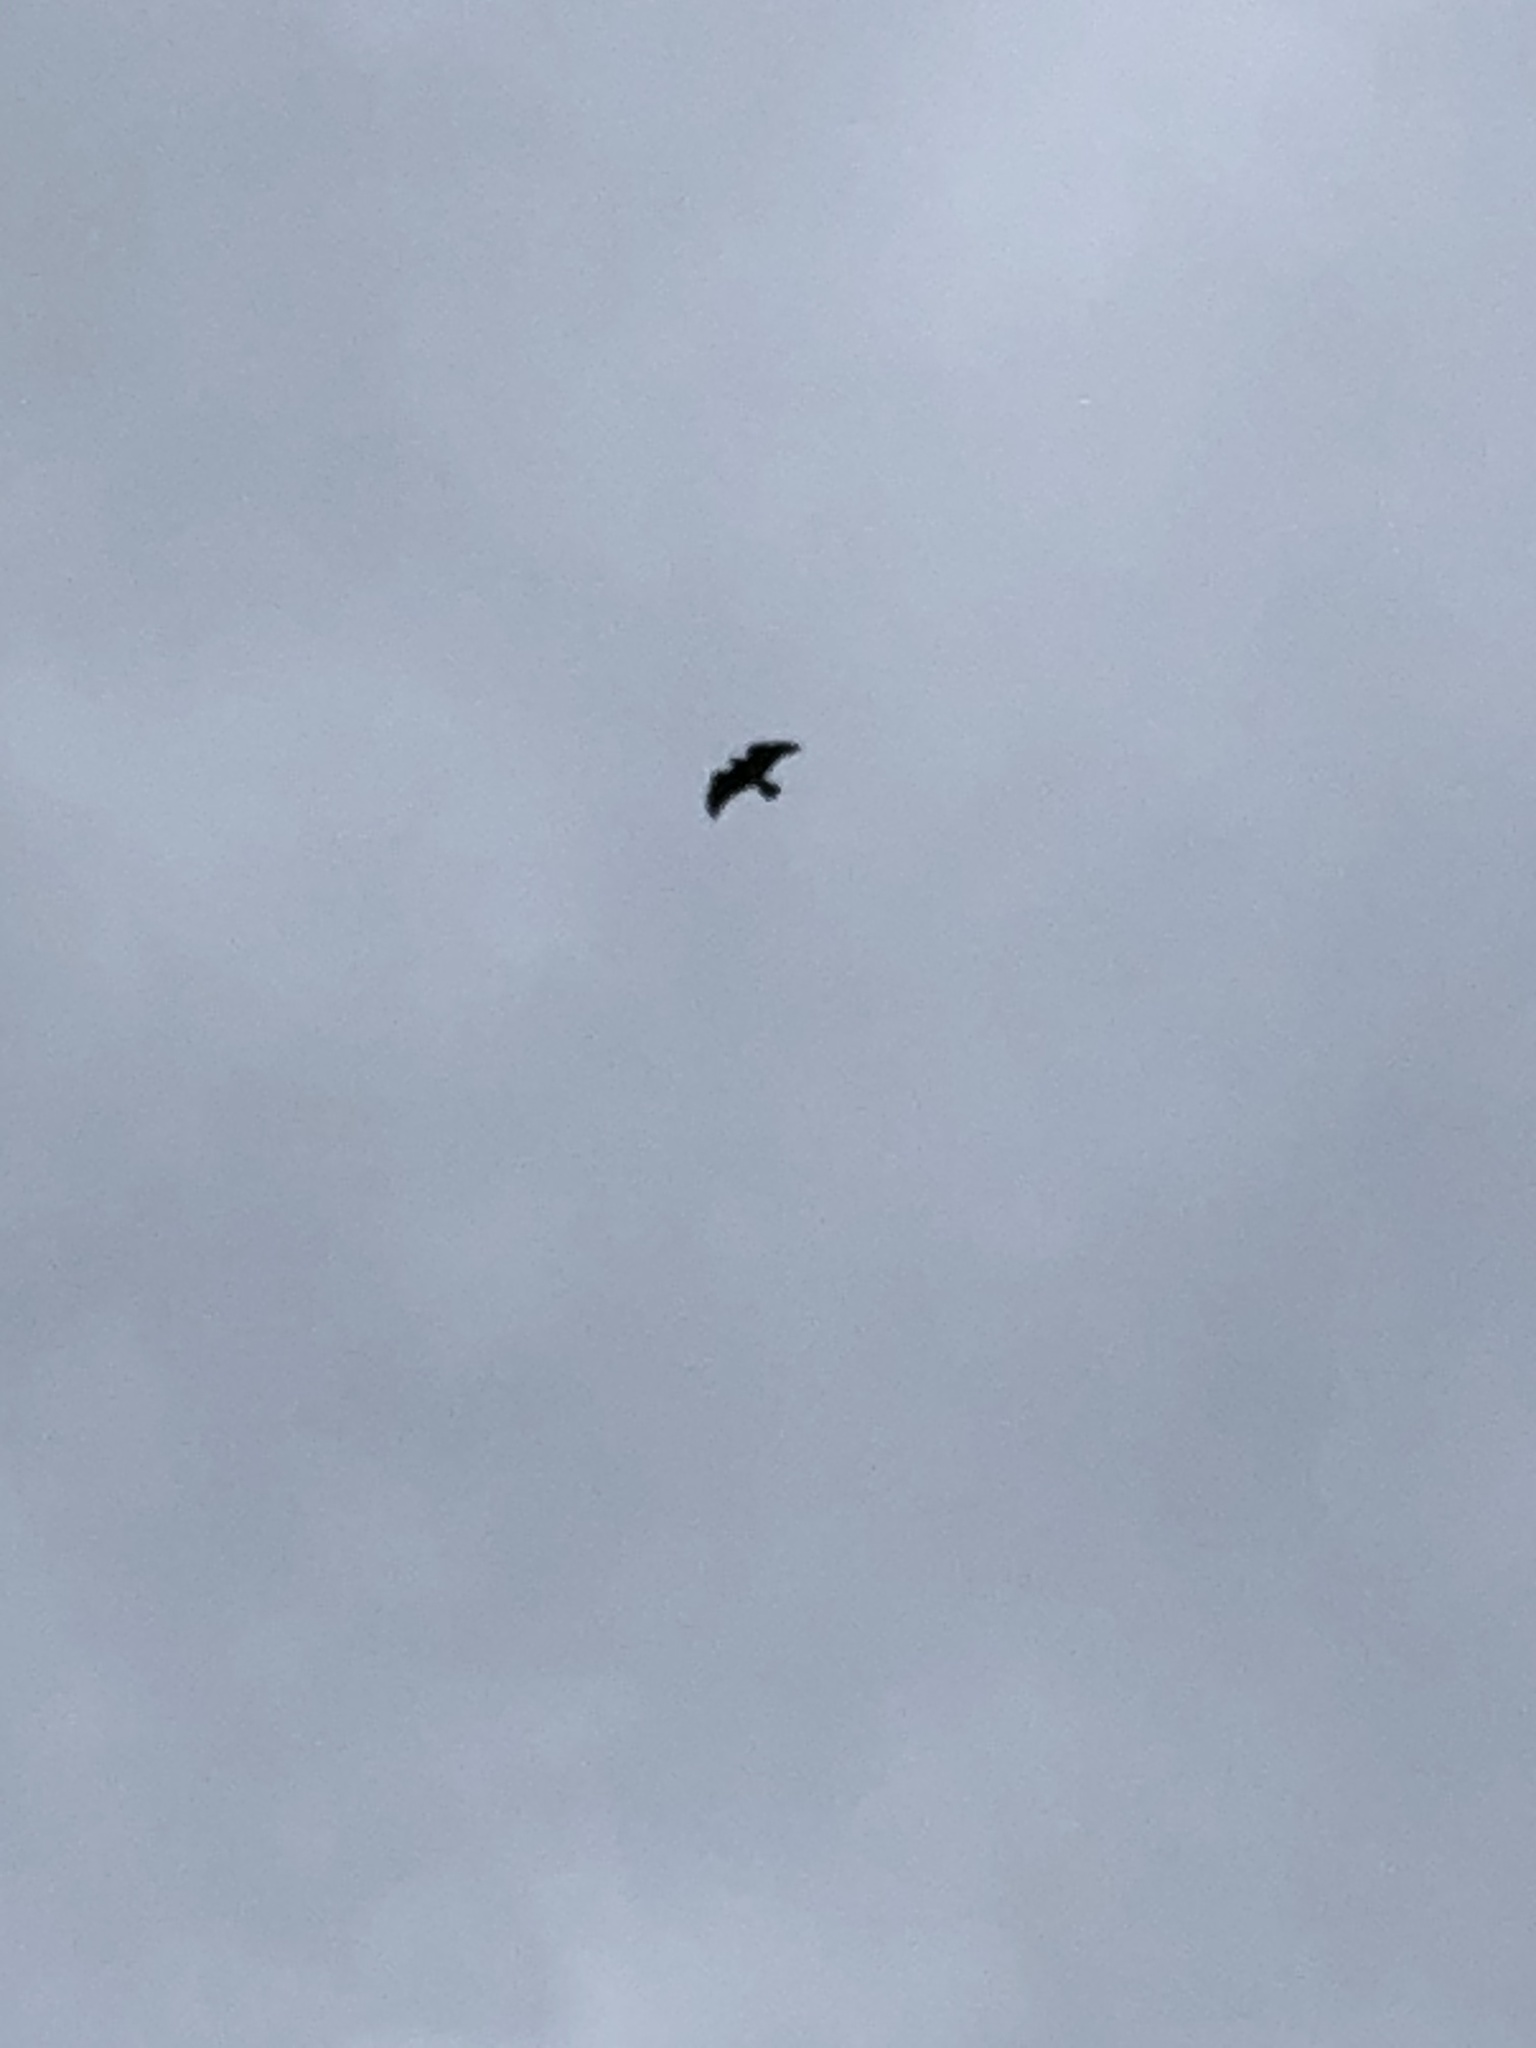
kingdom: Animalia
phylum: Chordata
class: Aves
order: Accipitriformes
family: Accipitridae
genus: Buteo
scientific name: Buteo platypterus
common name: Broad-winged hawk
